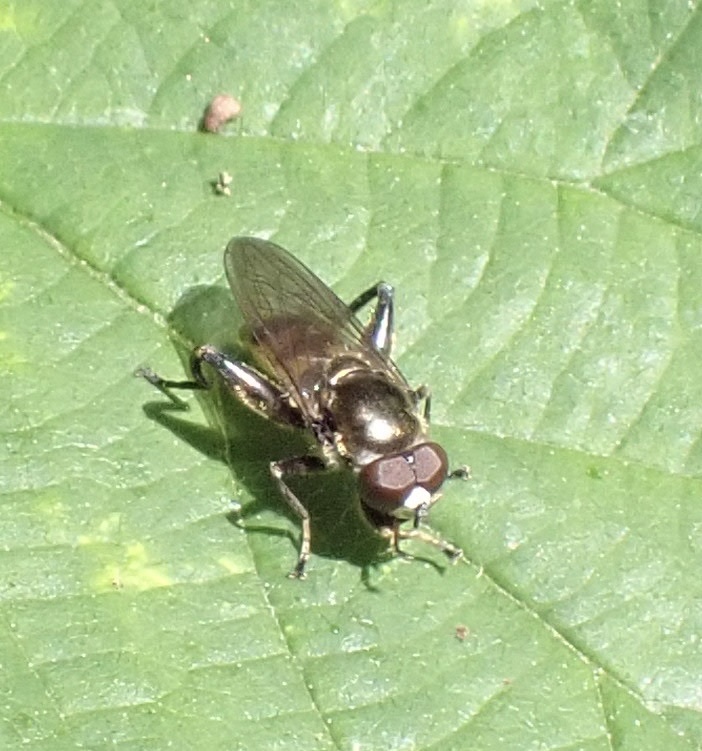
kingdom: Animalia
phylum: Arthropoda
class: Insecta
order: Diptera
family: Syrphidae
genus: Chalcosyrphus
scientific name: Chalcosyrphus nemorum
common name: Dusky-banded forest fly
